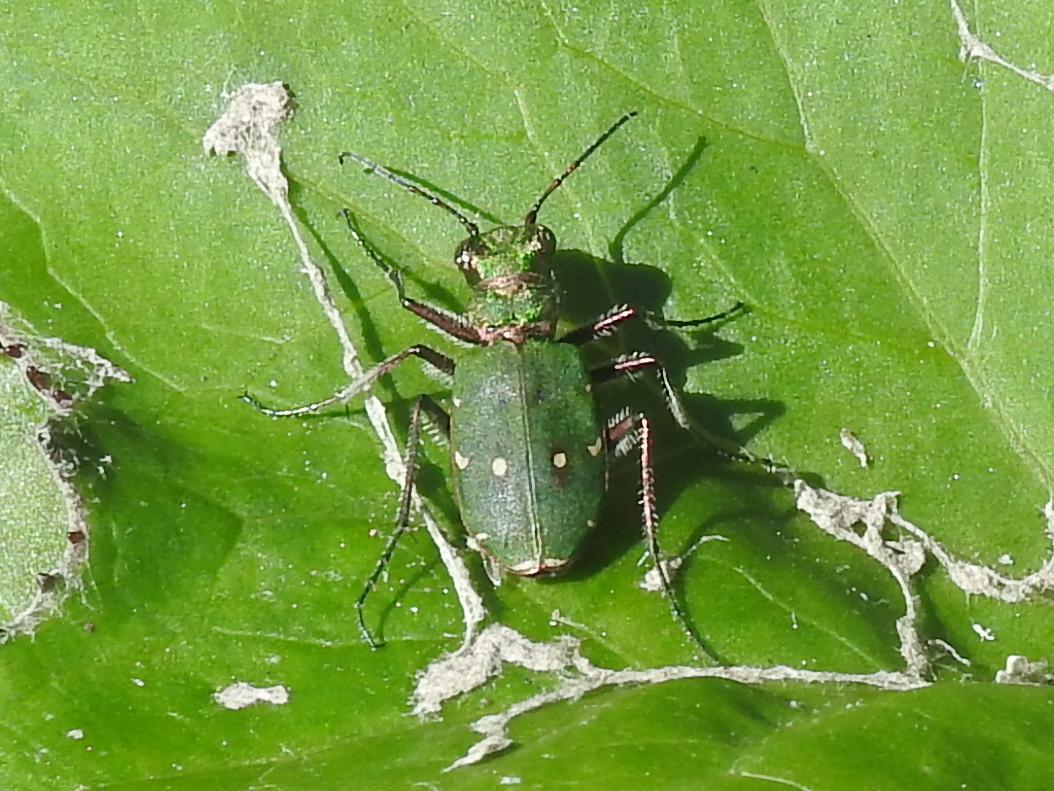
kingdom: Animalia
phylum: Arthropoda
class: Insecta
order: Coleoptera
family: Carabidae
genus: Cicindela
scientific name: Cicindela campestris
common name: Common tiger beetle
